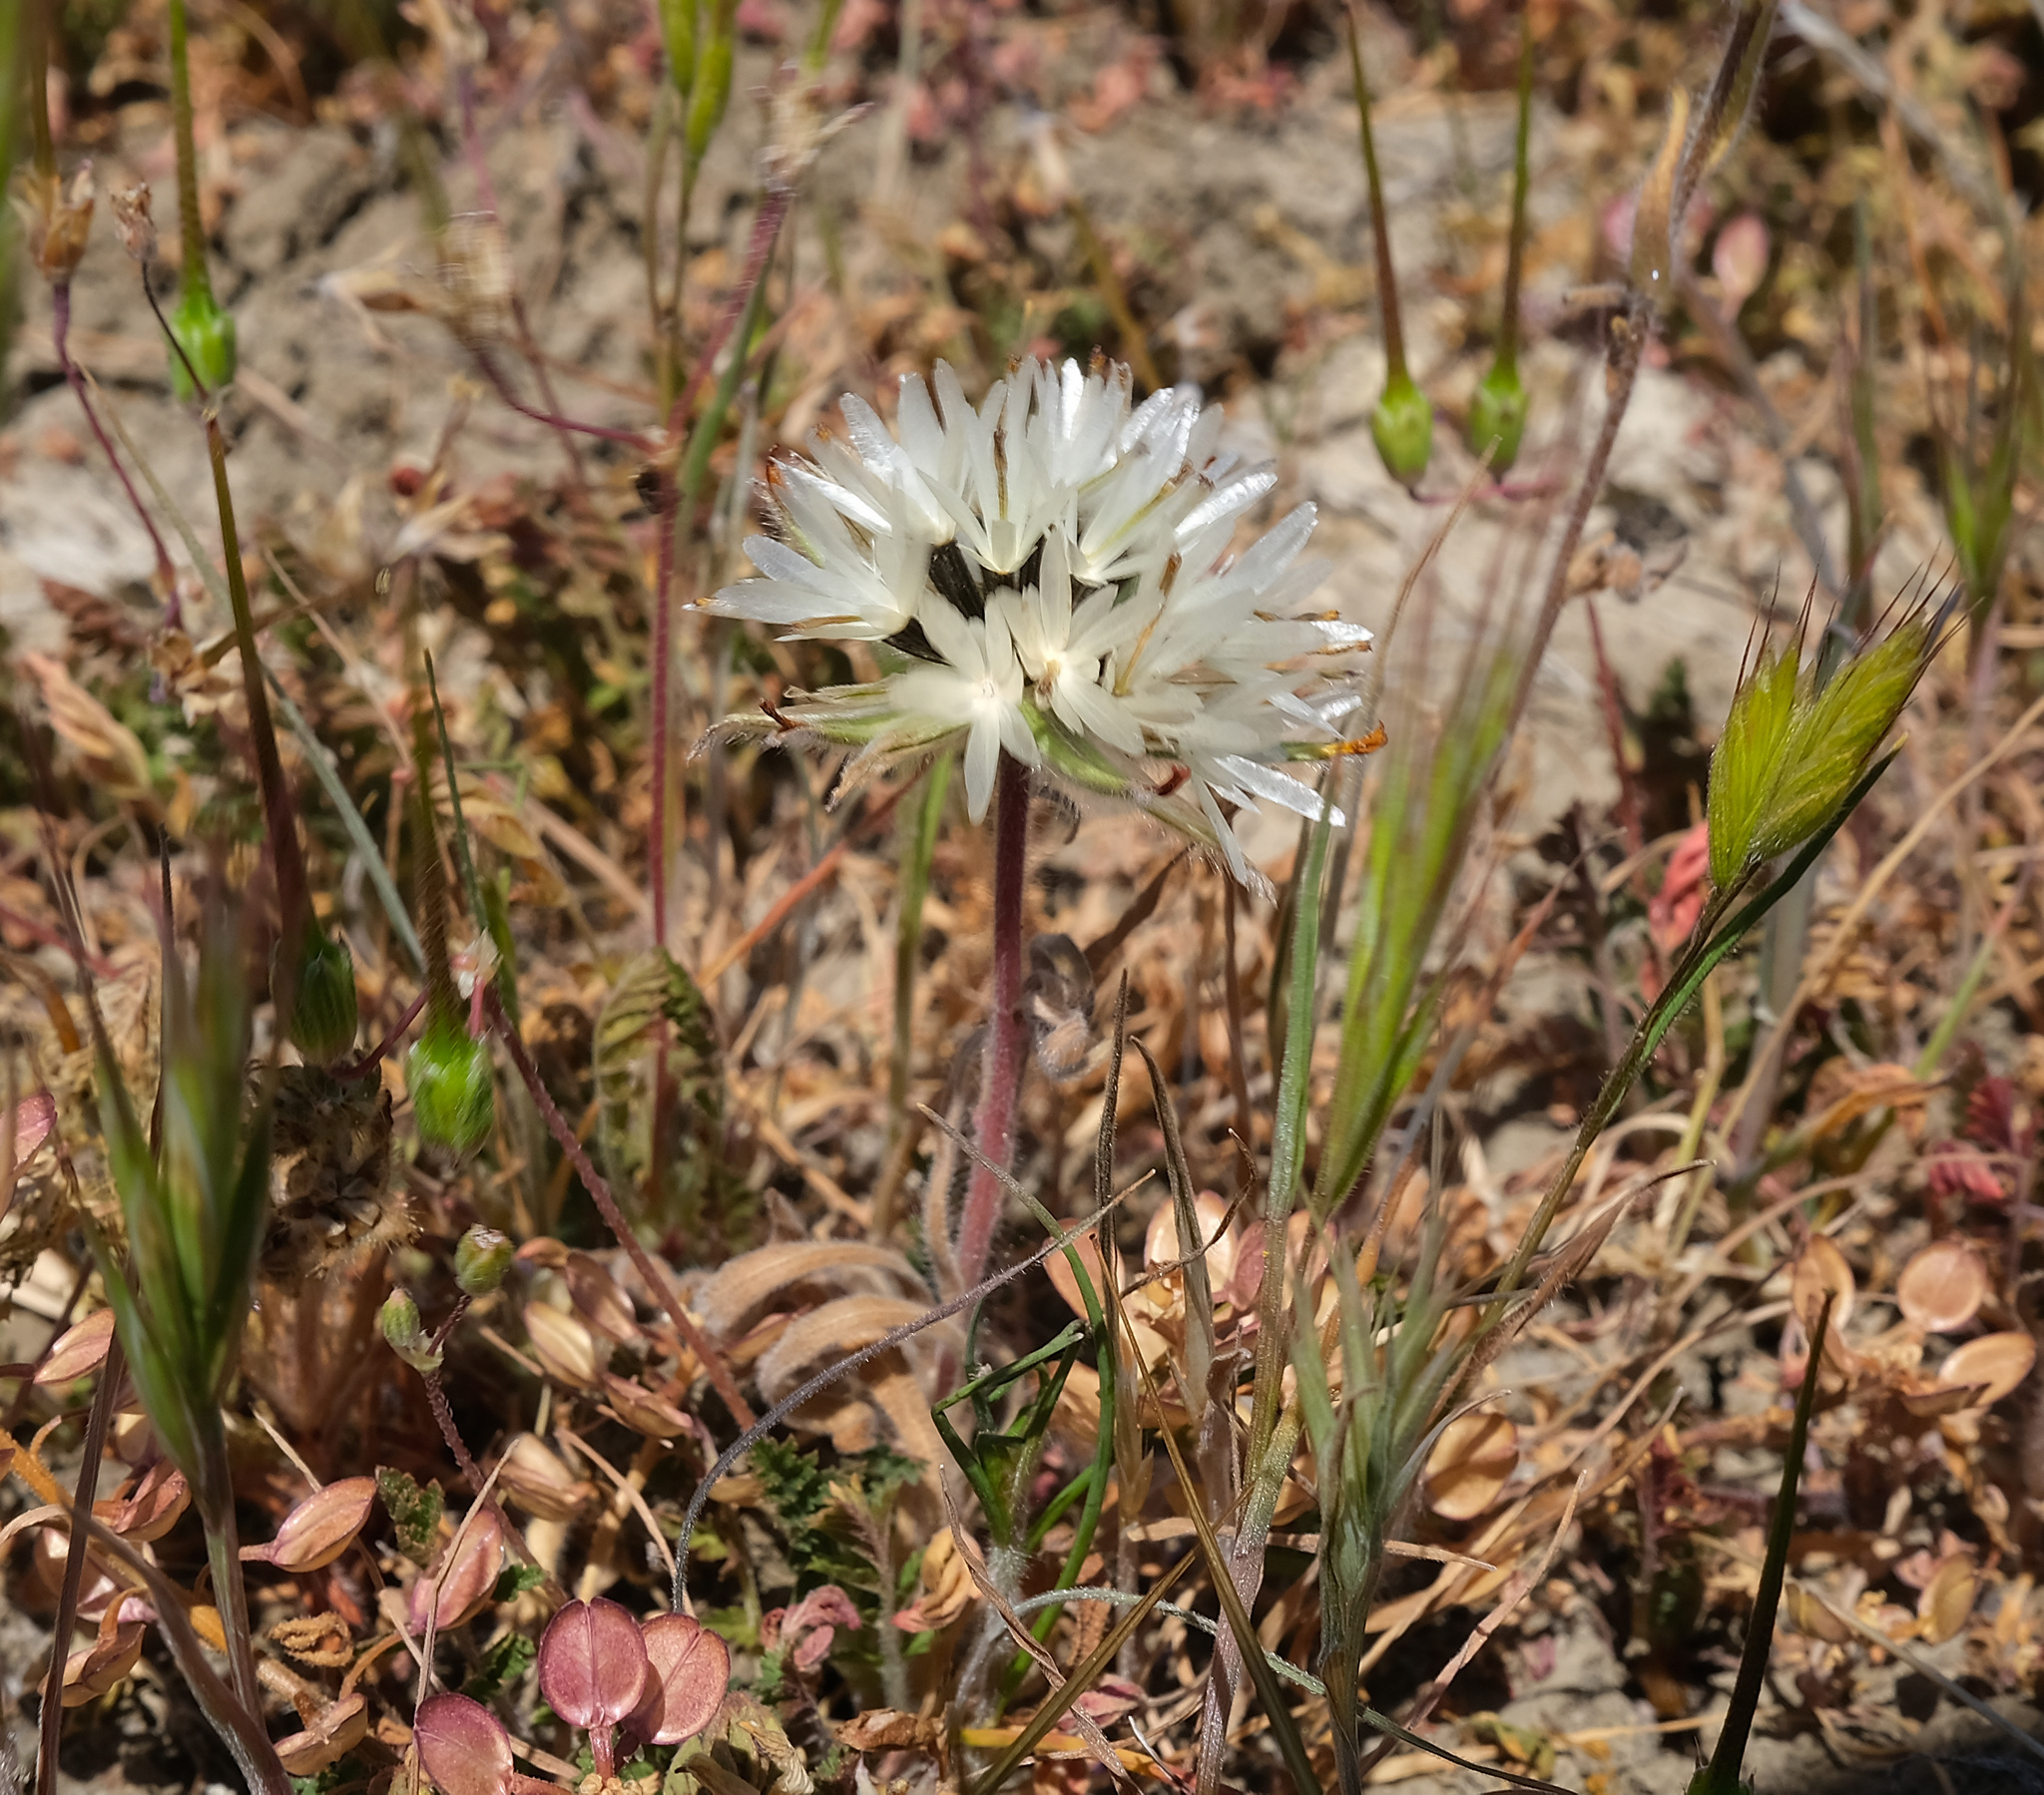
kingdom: Plantae
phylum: Tracheophyta
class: Magnoliopsida
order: Asterales
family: Asteraceae
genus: Achyrachaena
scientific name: Achyrachaena mollis
